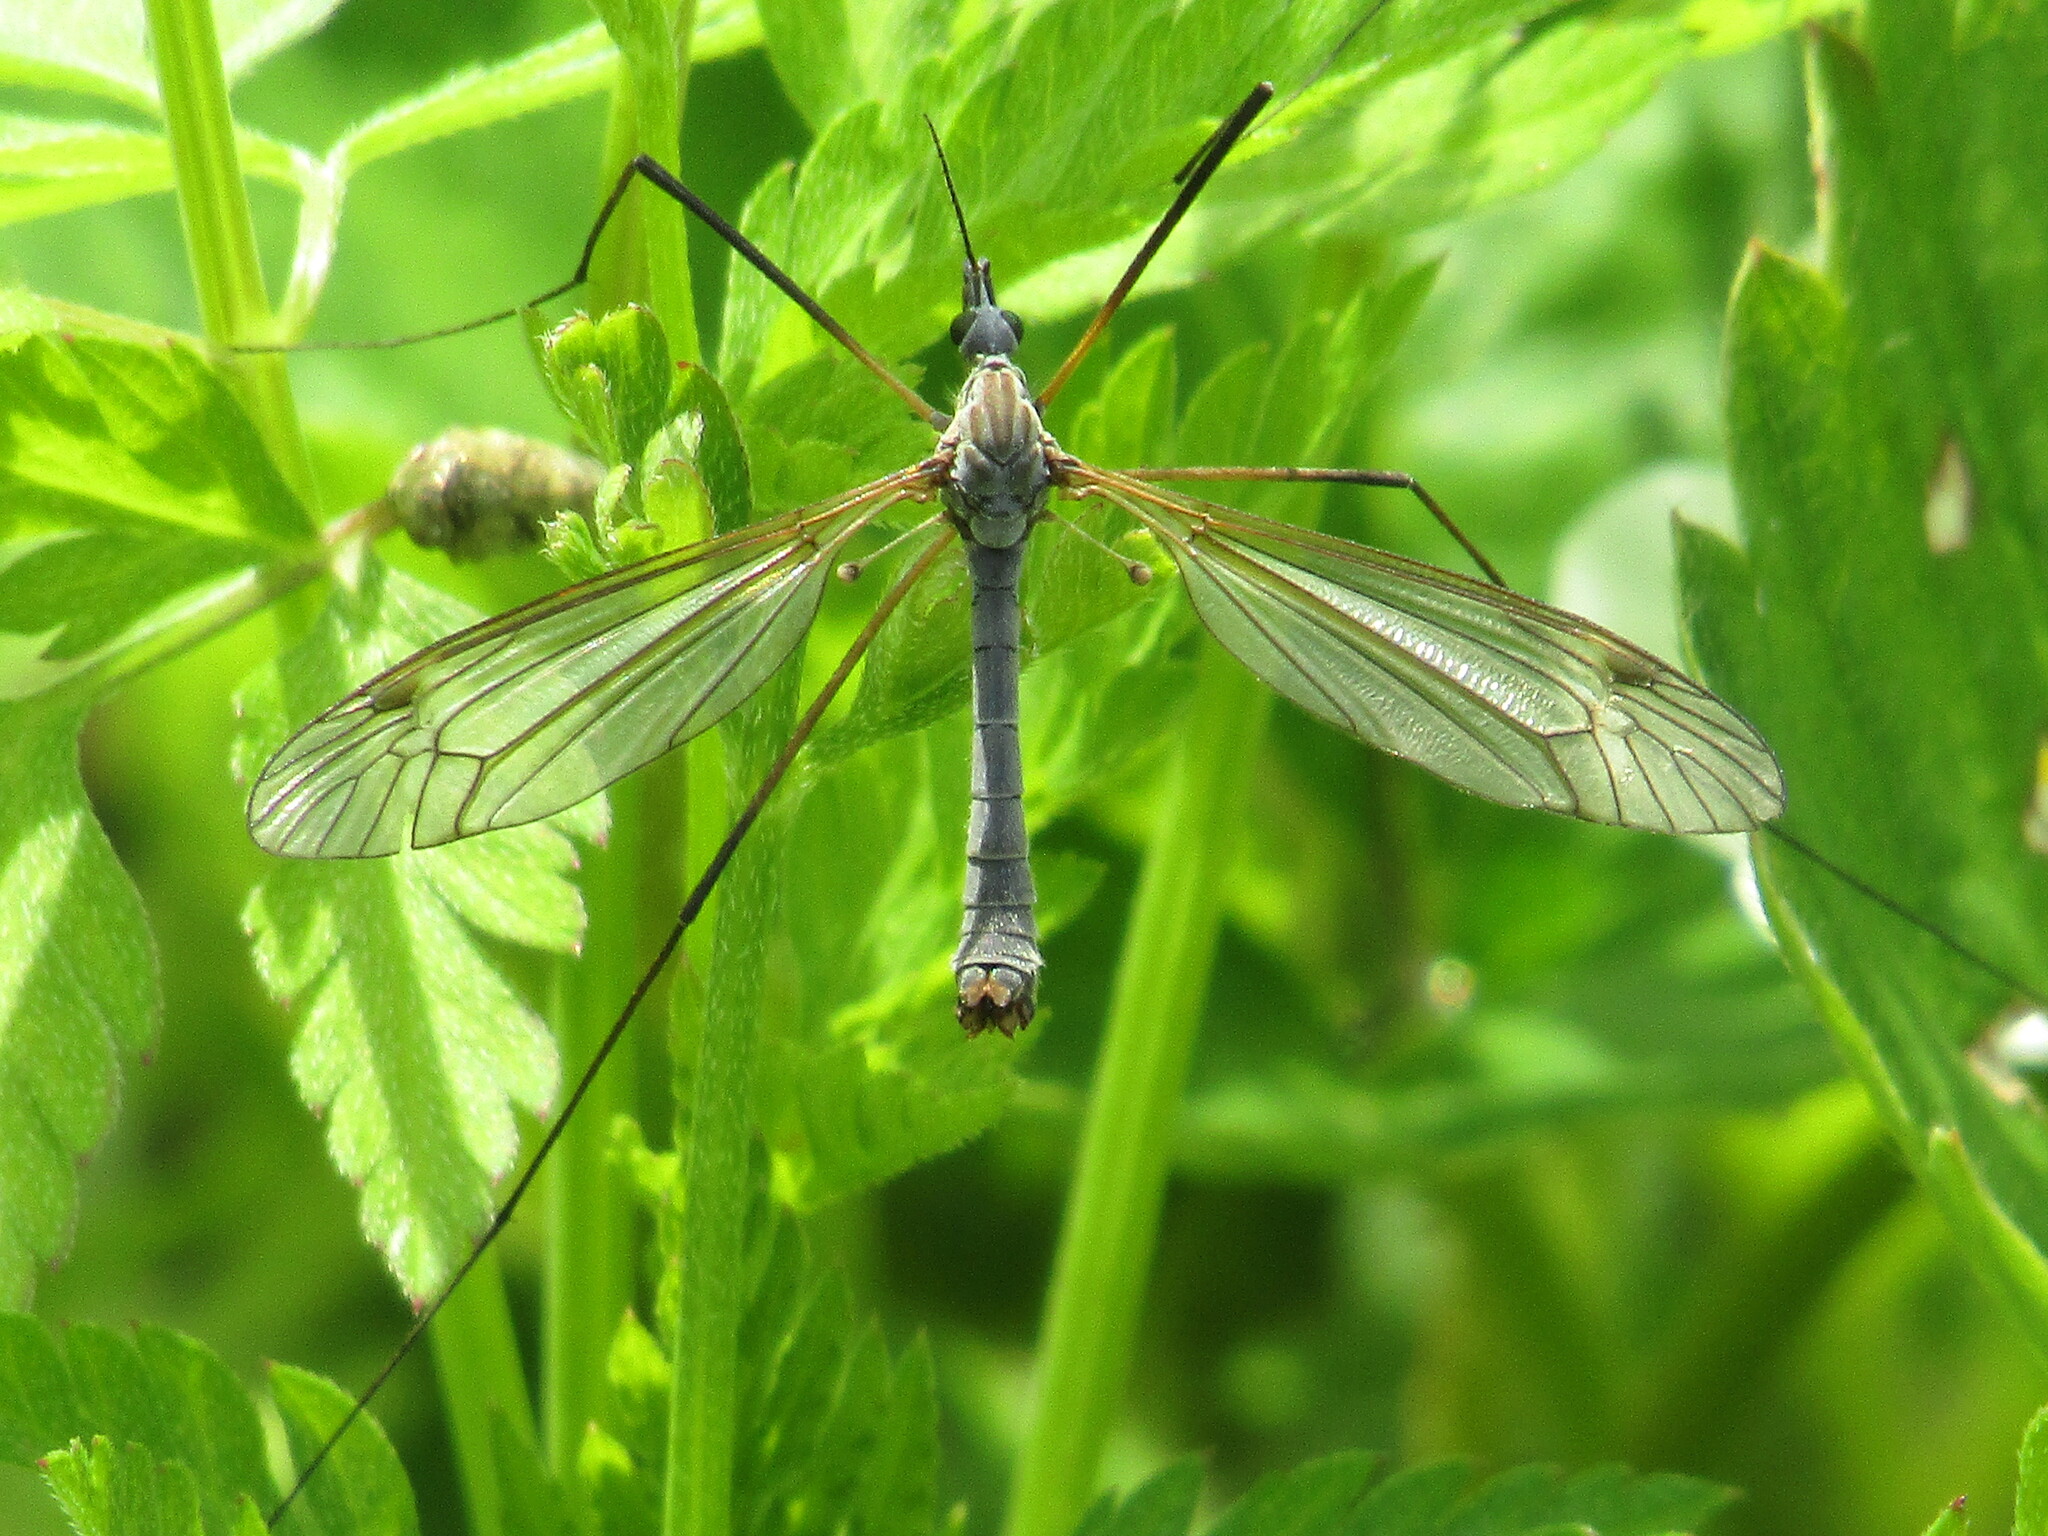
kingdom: Animalia
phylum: Arthropoda
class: Insecta
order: Diptera
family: Tipulidae
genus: Tipula
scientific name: Tipula luna
